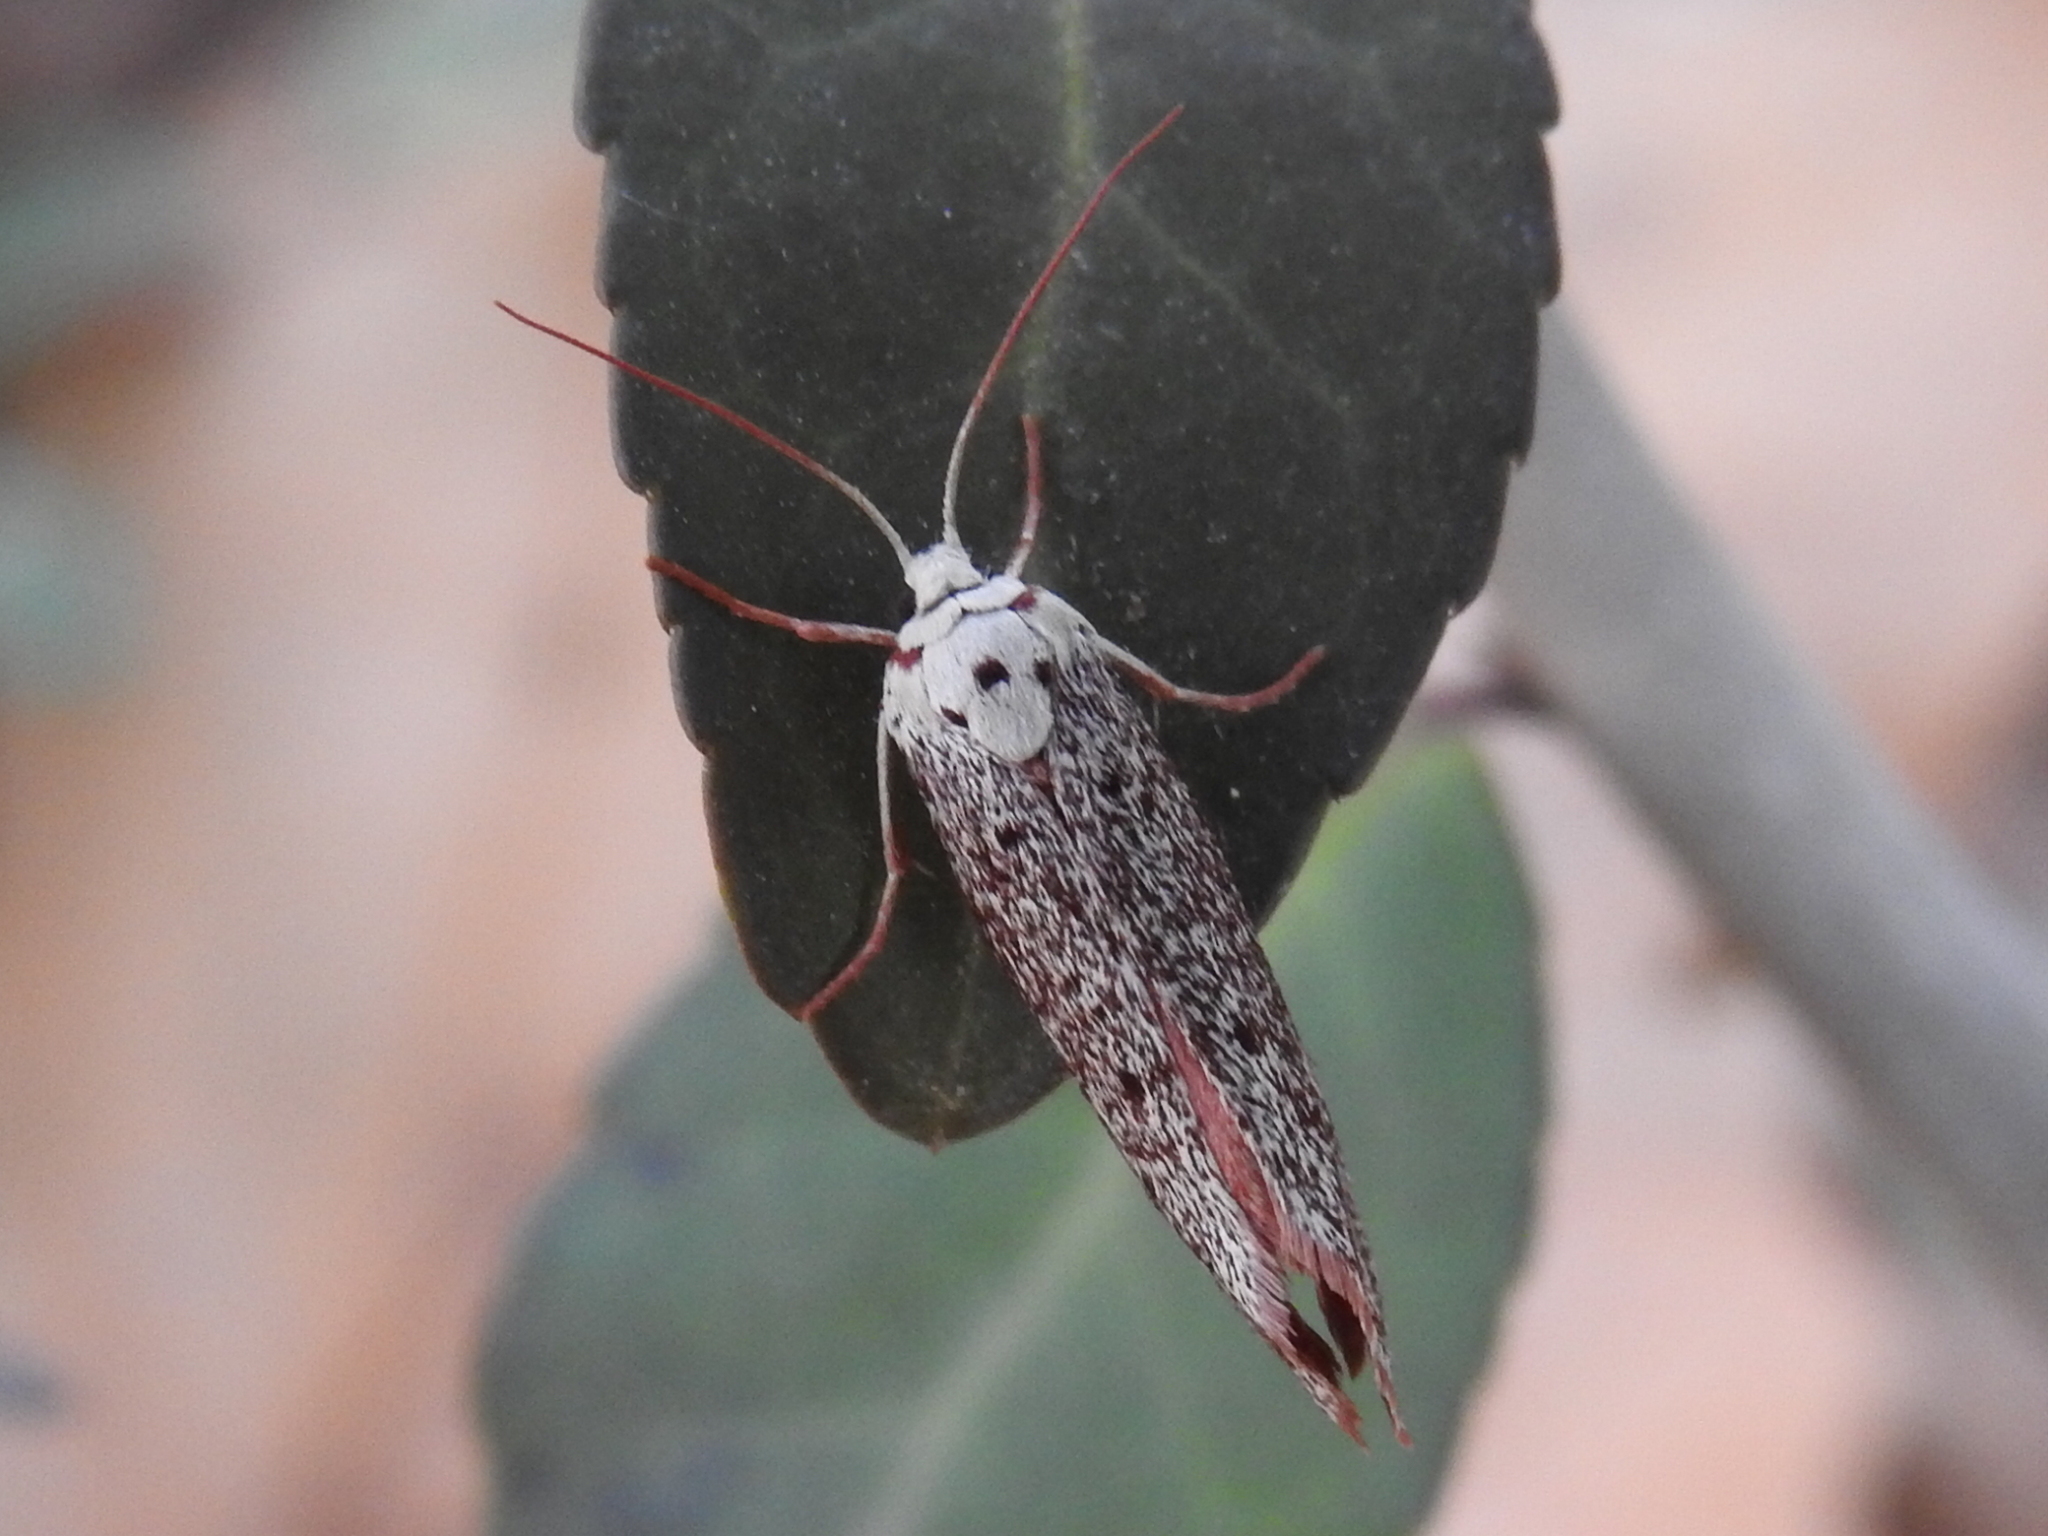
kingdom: Animalia
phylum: Arthropoda
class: Insecta
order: Lepidoptera
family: Lacturidae
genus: Lactura
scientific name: Lactura
